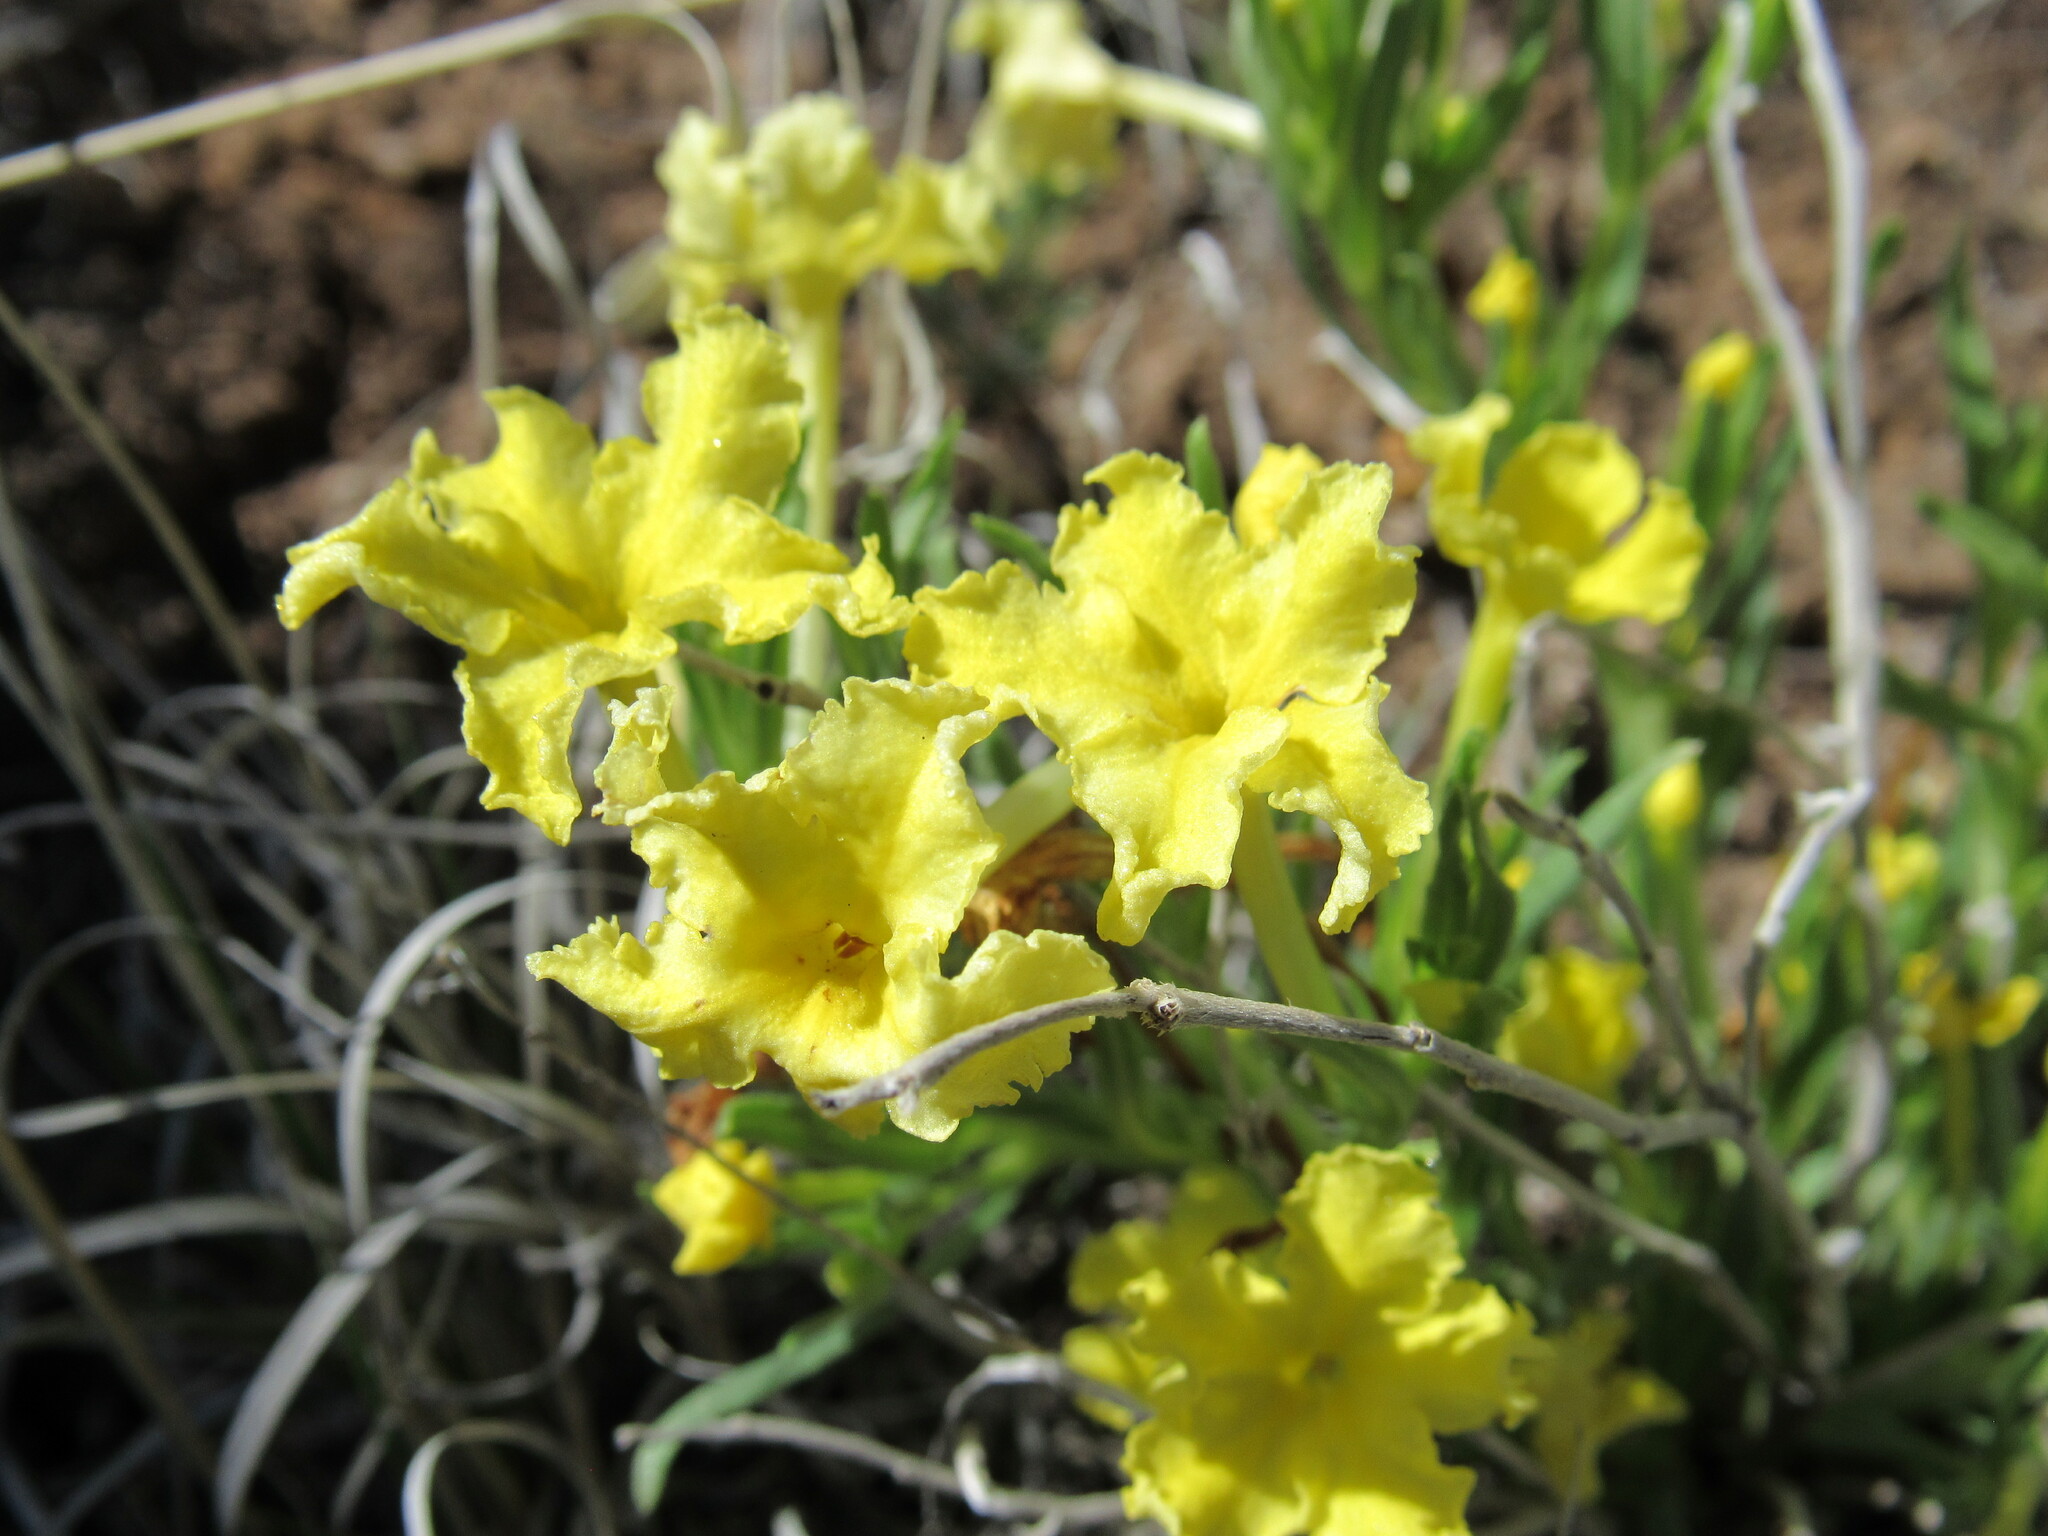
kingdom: Plantae
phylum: Tracheophyta
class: Magnoliopsida
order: Boraginales
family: Boraginaceae
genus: Lithospermum
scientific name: Lithospermum incisum
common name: Fringed gromwell
